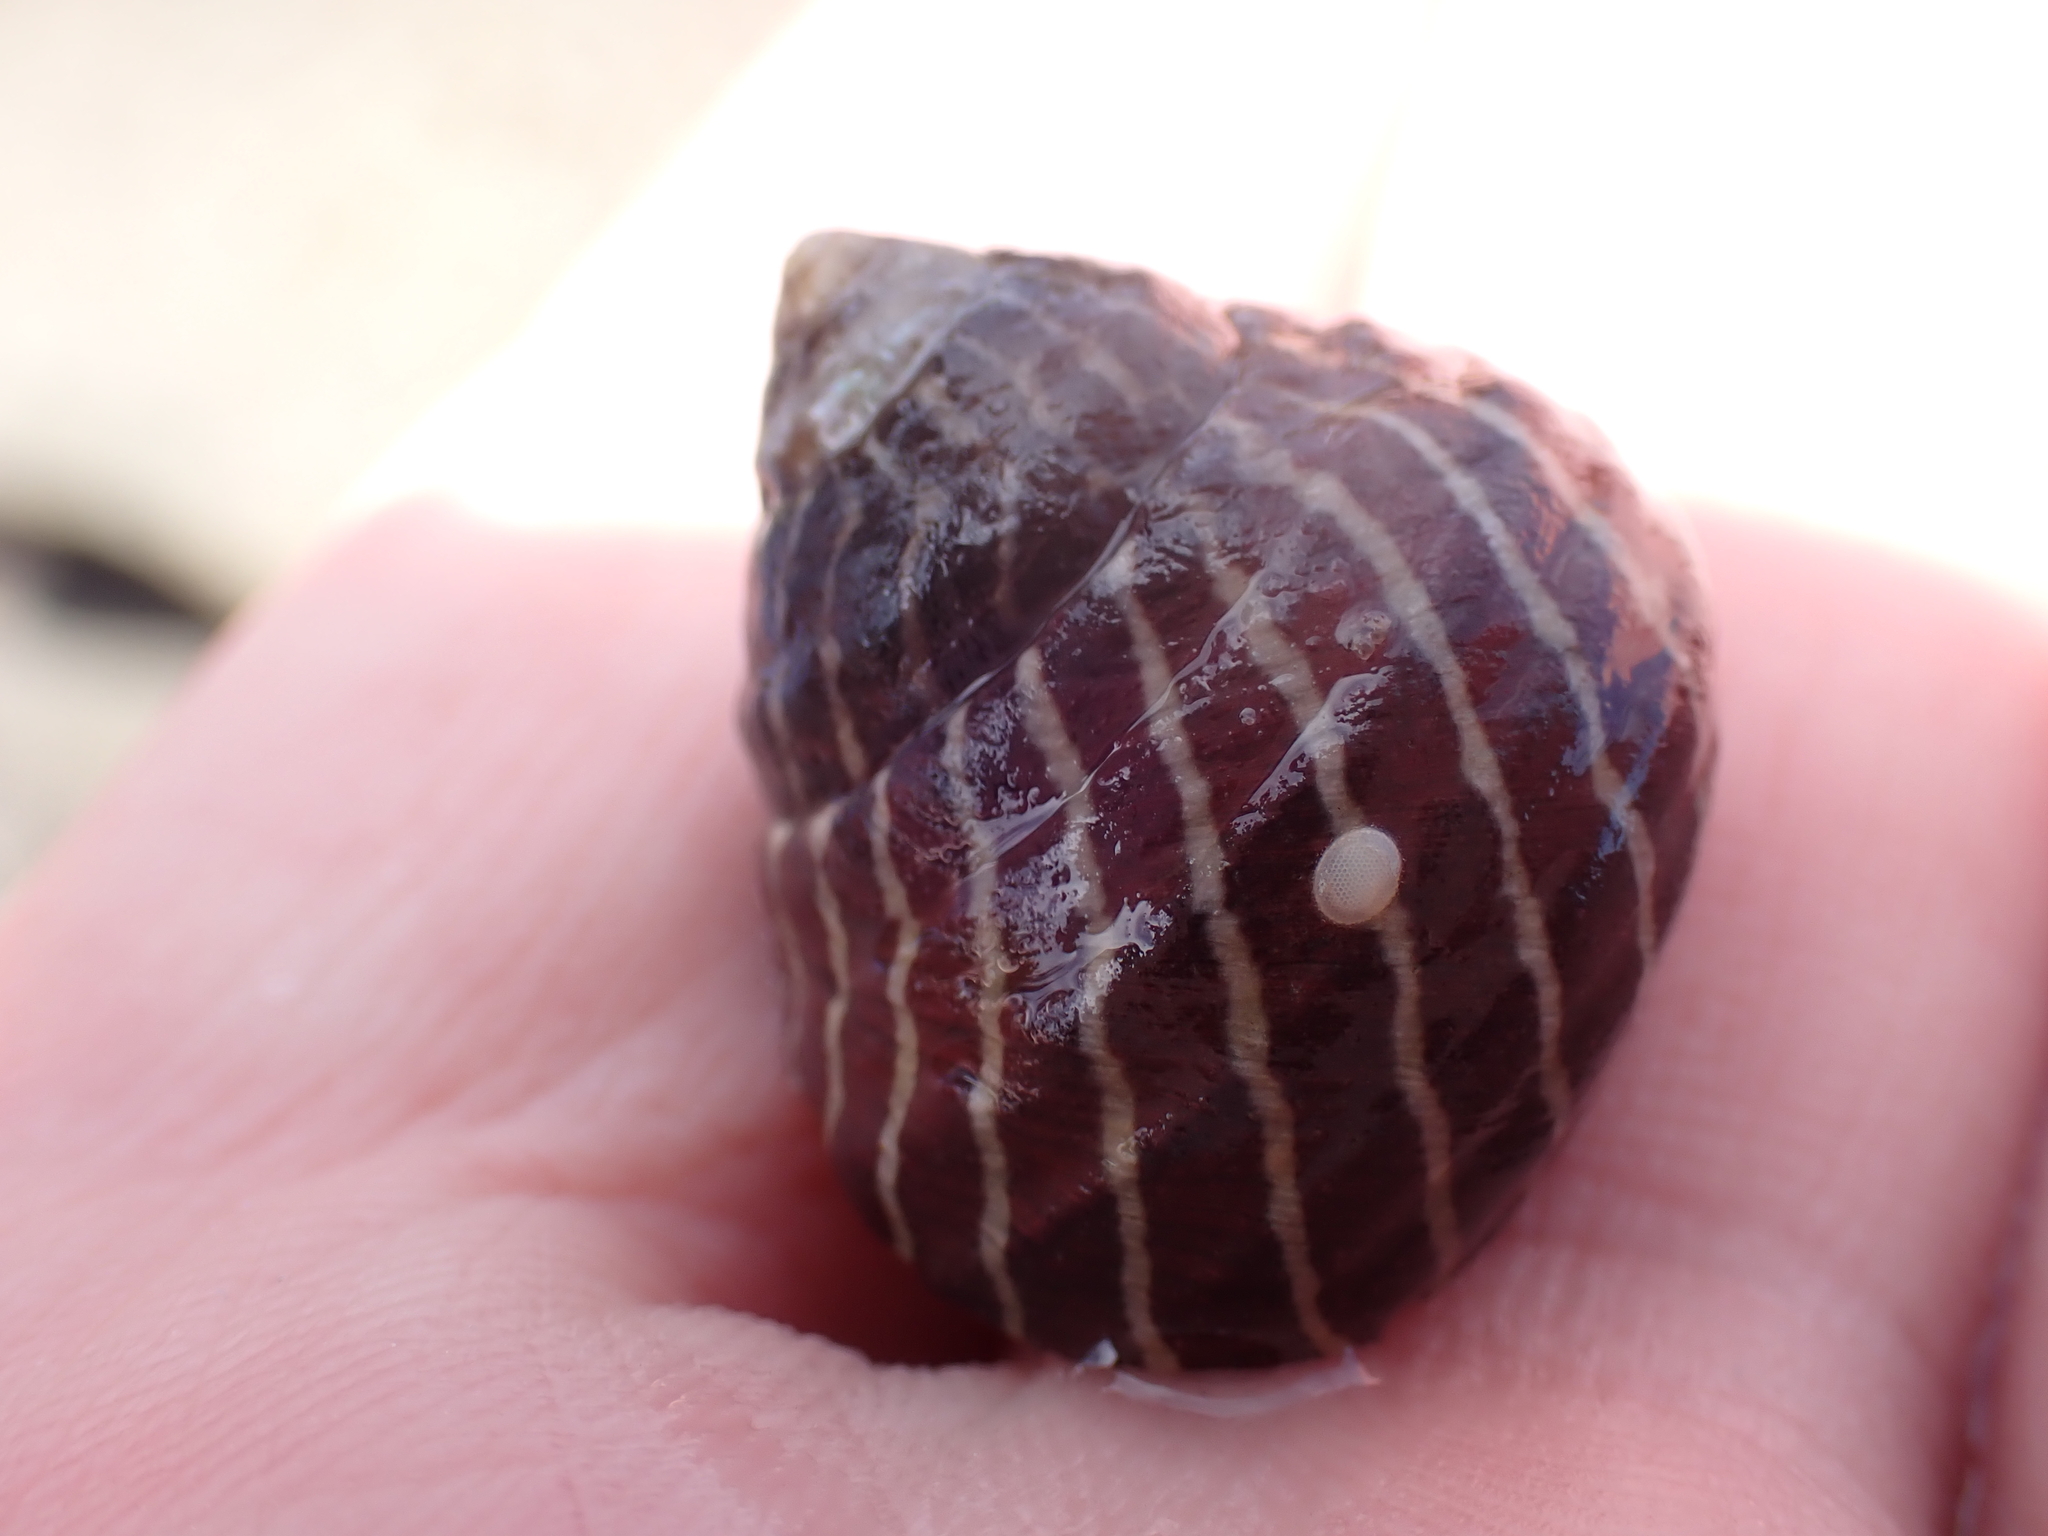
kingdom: Animalia
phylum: Mollusca
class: Gastropoda
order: Trochida
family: Trochidae
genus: Austrocochlea
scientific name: Austrocochlea porcata
